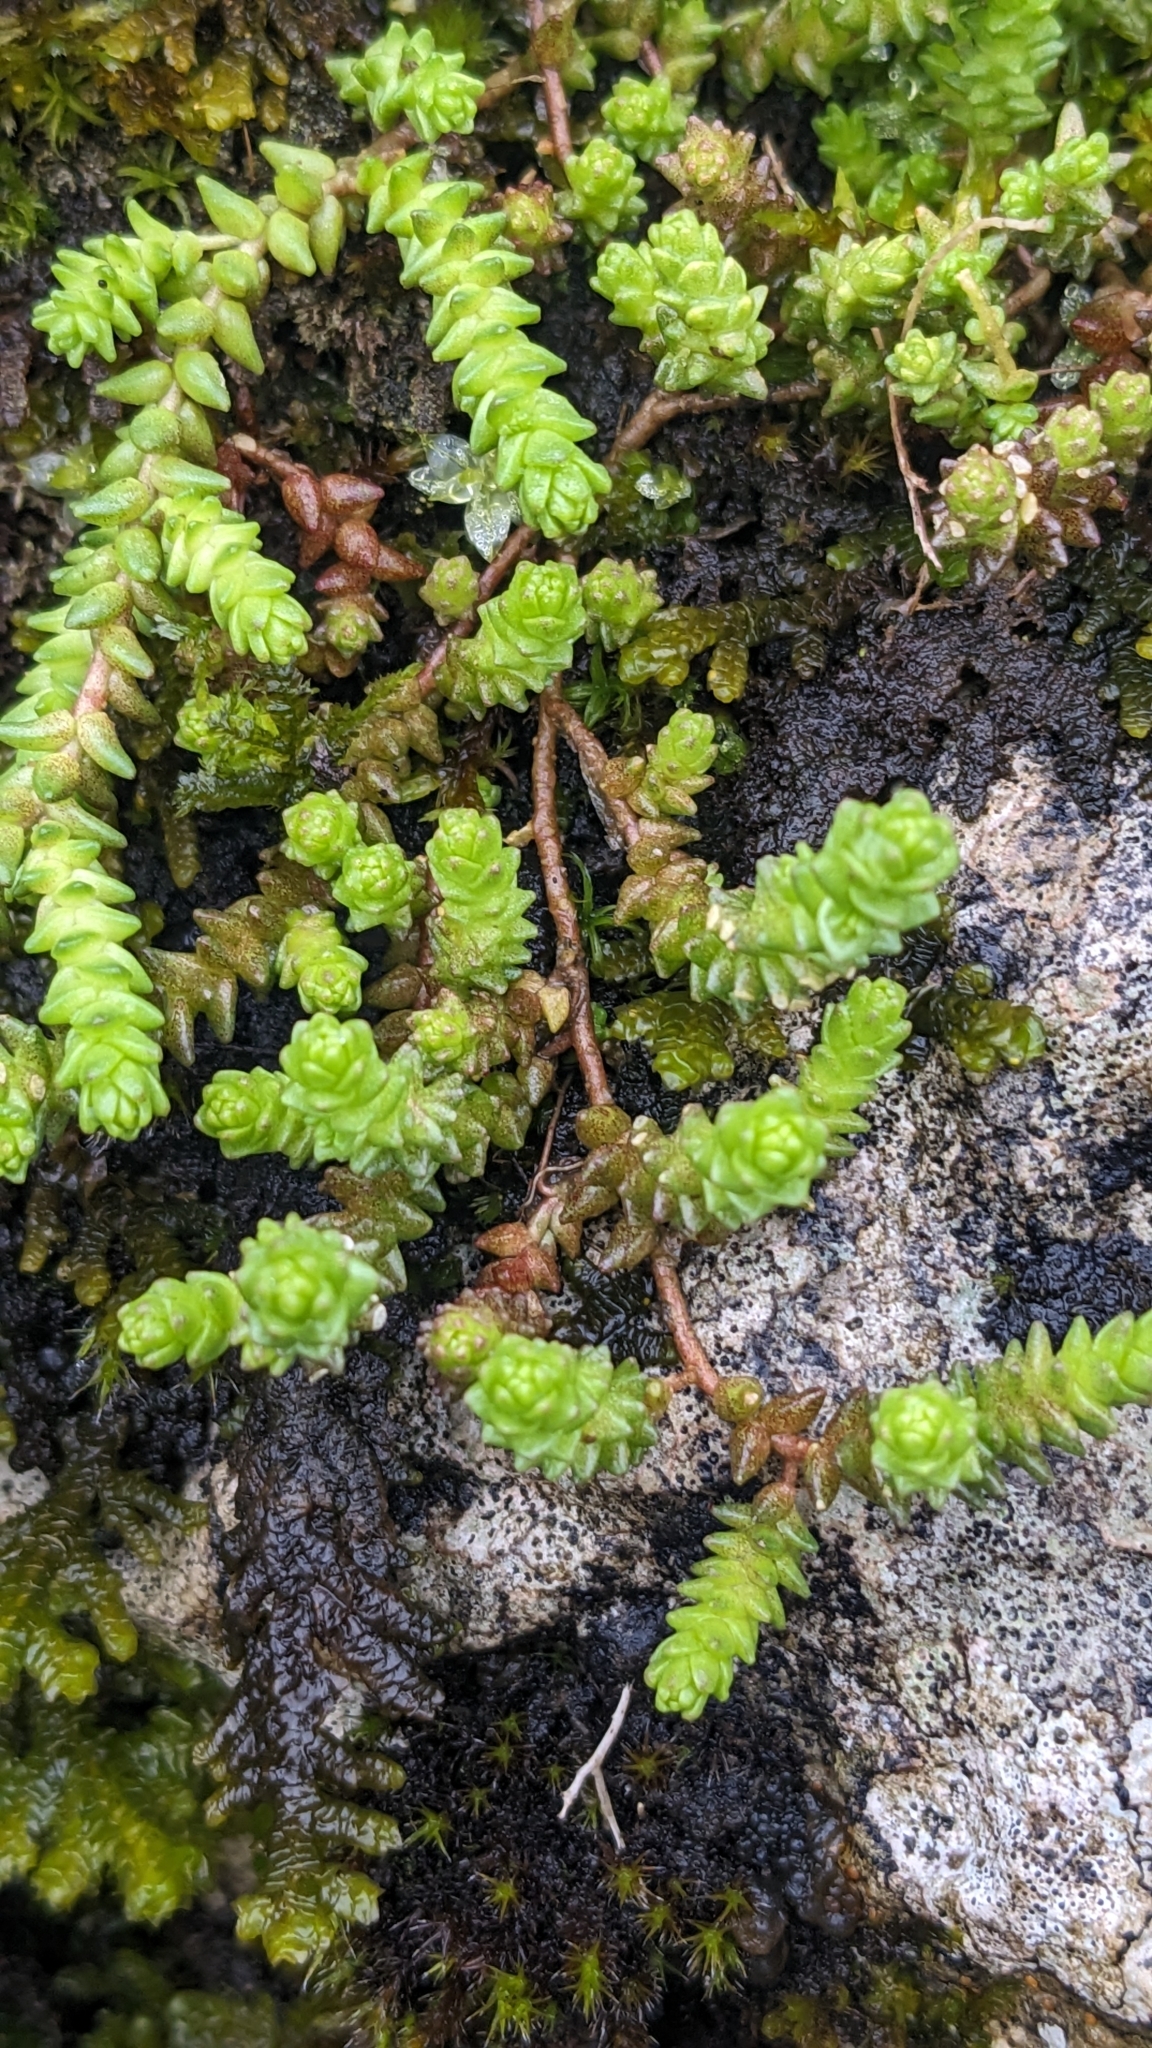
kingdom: Plantae
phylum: Tracheophyta
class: Magnoliopsida
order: Saxifragales
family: Crassulaceae
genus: Sedum
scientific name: Sedum acre
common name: Biting stonecrop
